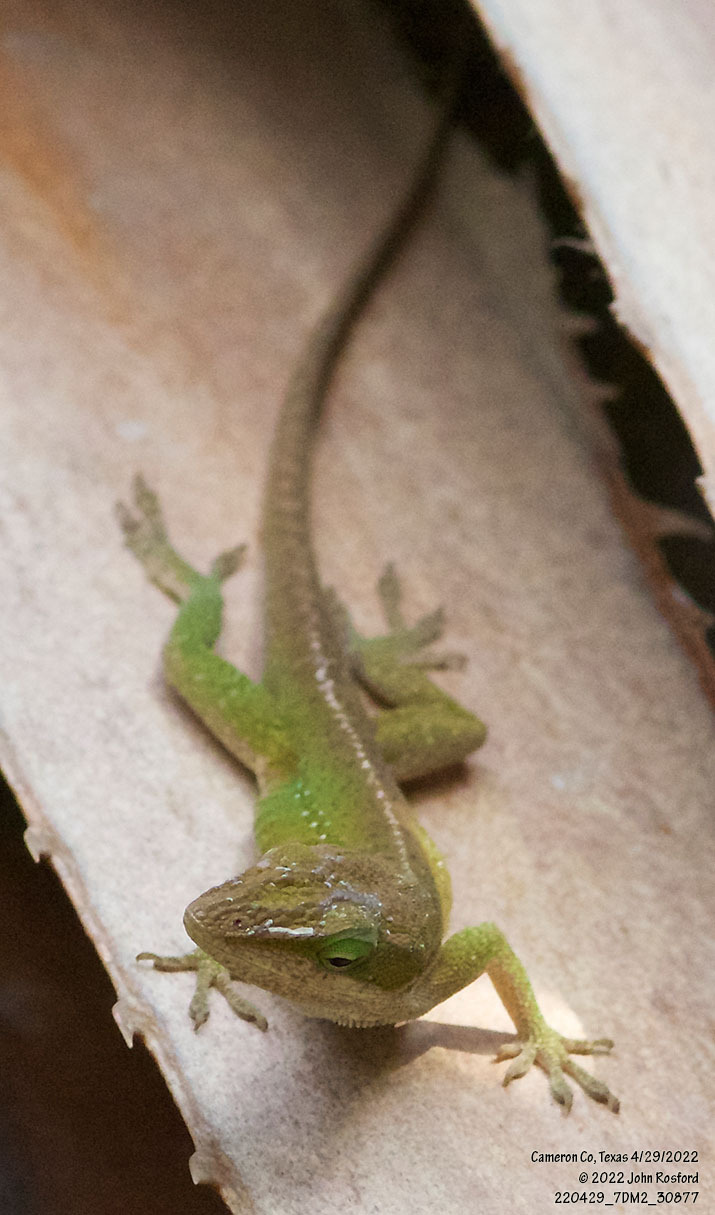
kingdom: Animalia
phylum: Chordata
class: Squamata
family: Dactyloidae
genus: Anolis
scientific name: Anolis carolinensis
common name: Green anole
